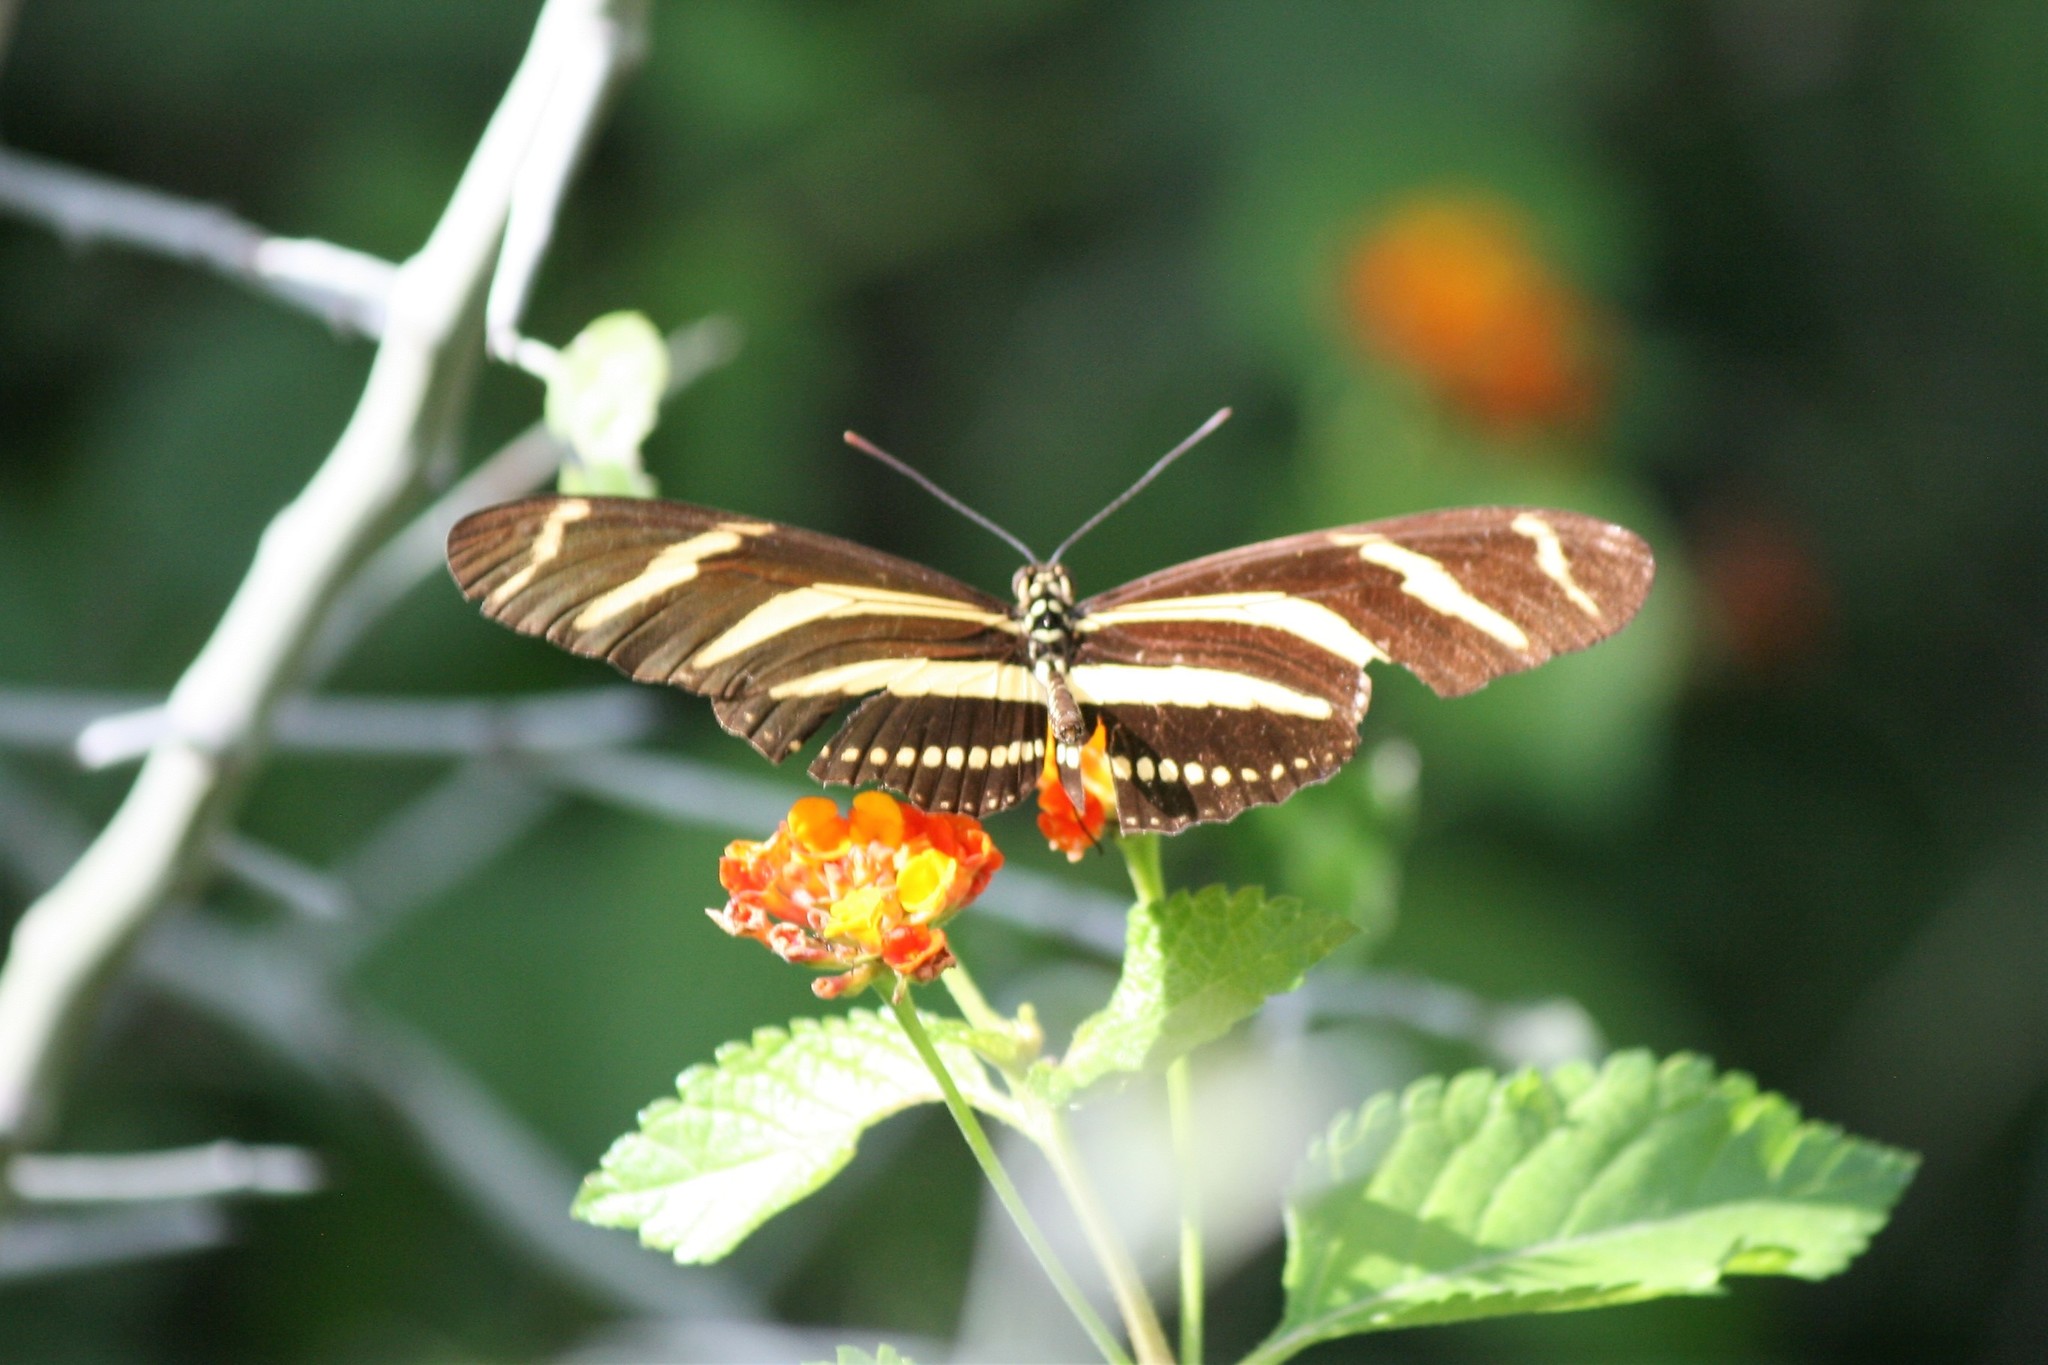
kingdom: Animalia
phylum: Arthropoda
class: Insecta
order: Lepidoptera
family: Nymphalidae
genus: Heliconius
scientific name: Heliconius charithonia
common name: Zebra long wing
